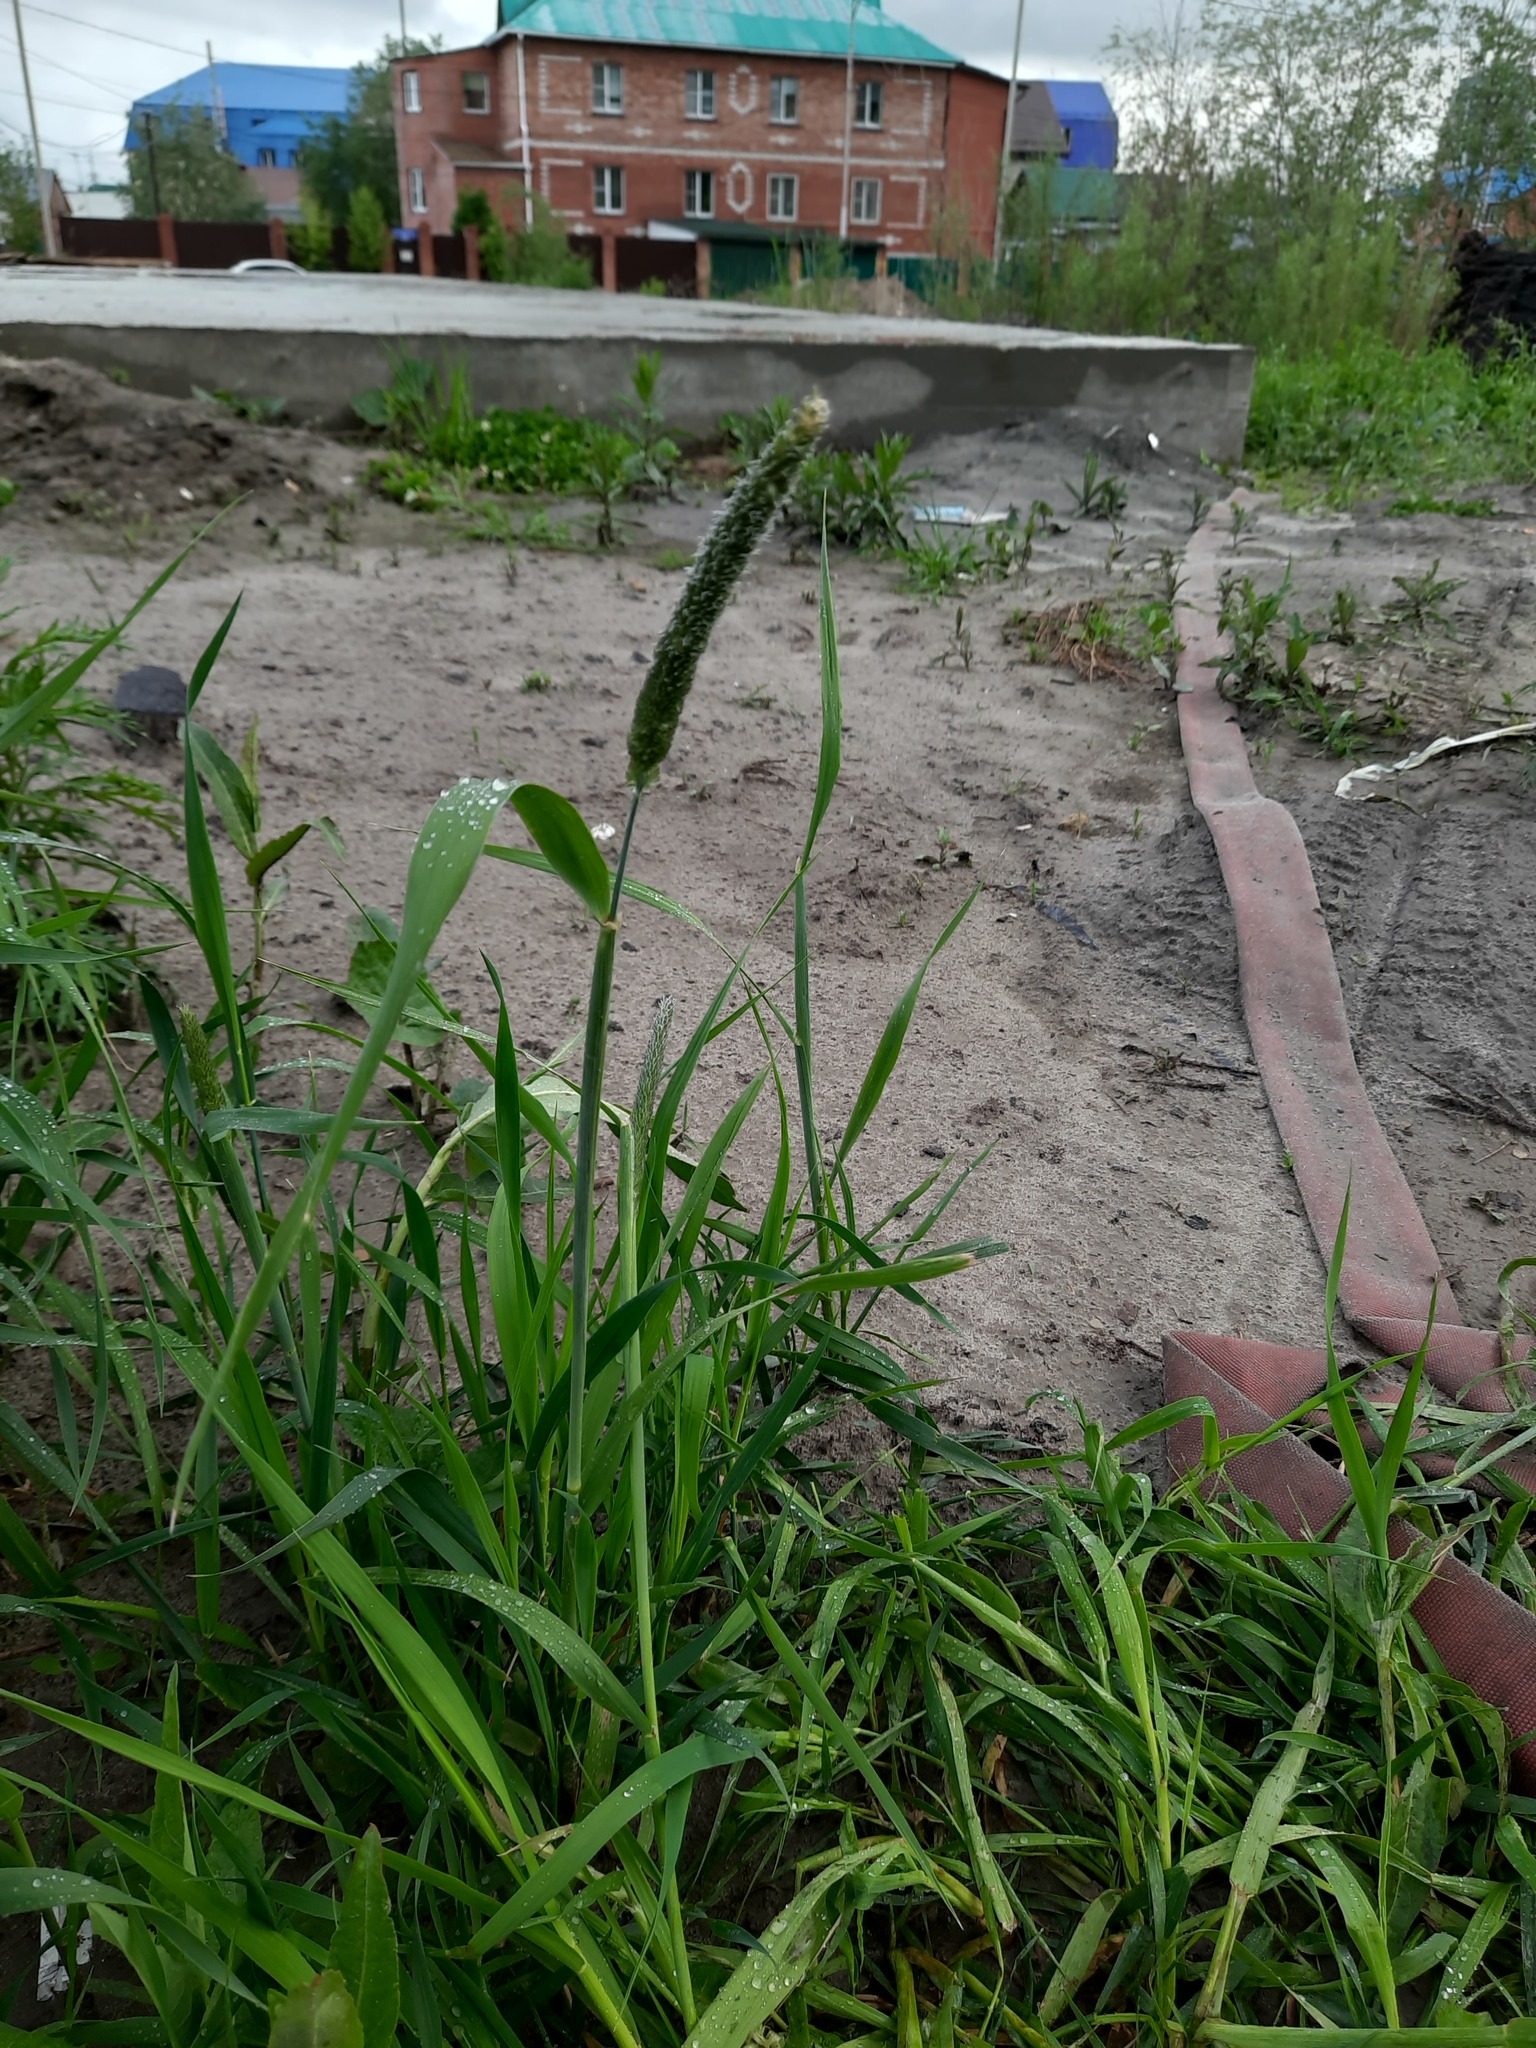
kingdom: Plantae
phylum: Tracheophyta
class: Liliopsida
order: Poales
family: Poaceae
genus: Phleum
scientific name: Phleum pratense
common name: Timothy grass
